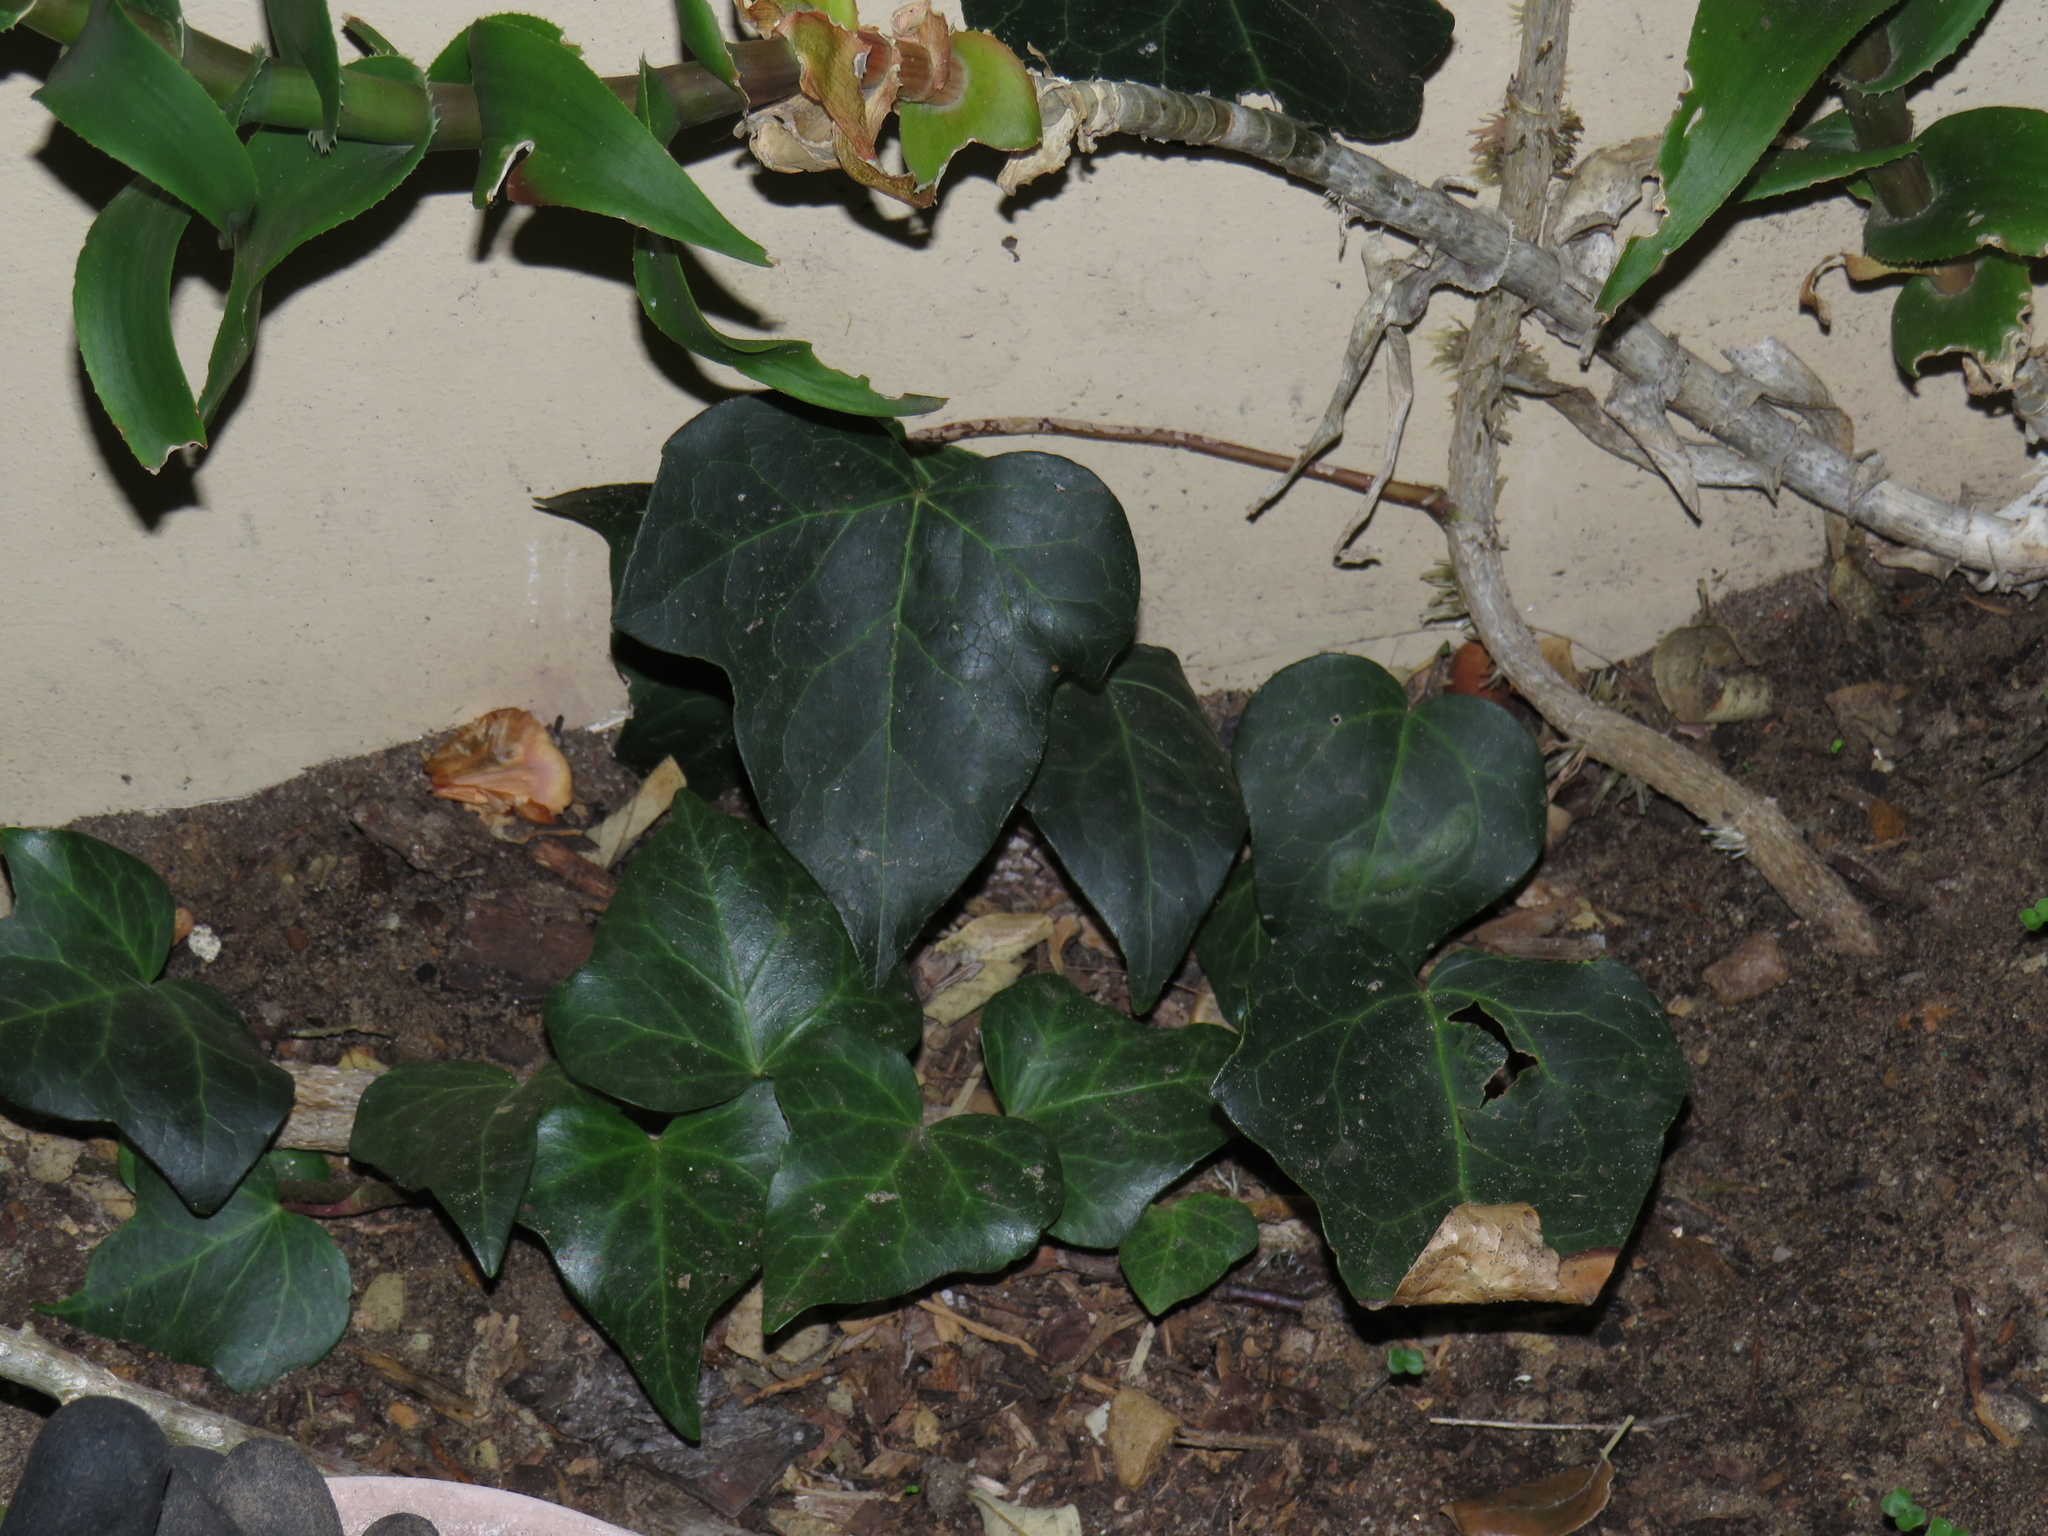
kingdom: Plantae
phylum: Tracheophyta
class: Magnoliopsida
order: Apiales
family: Araliaceae
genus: Hedera
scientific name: Hedera canariensis
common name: Madeira ivy
